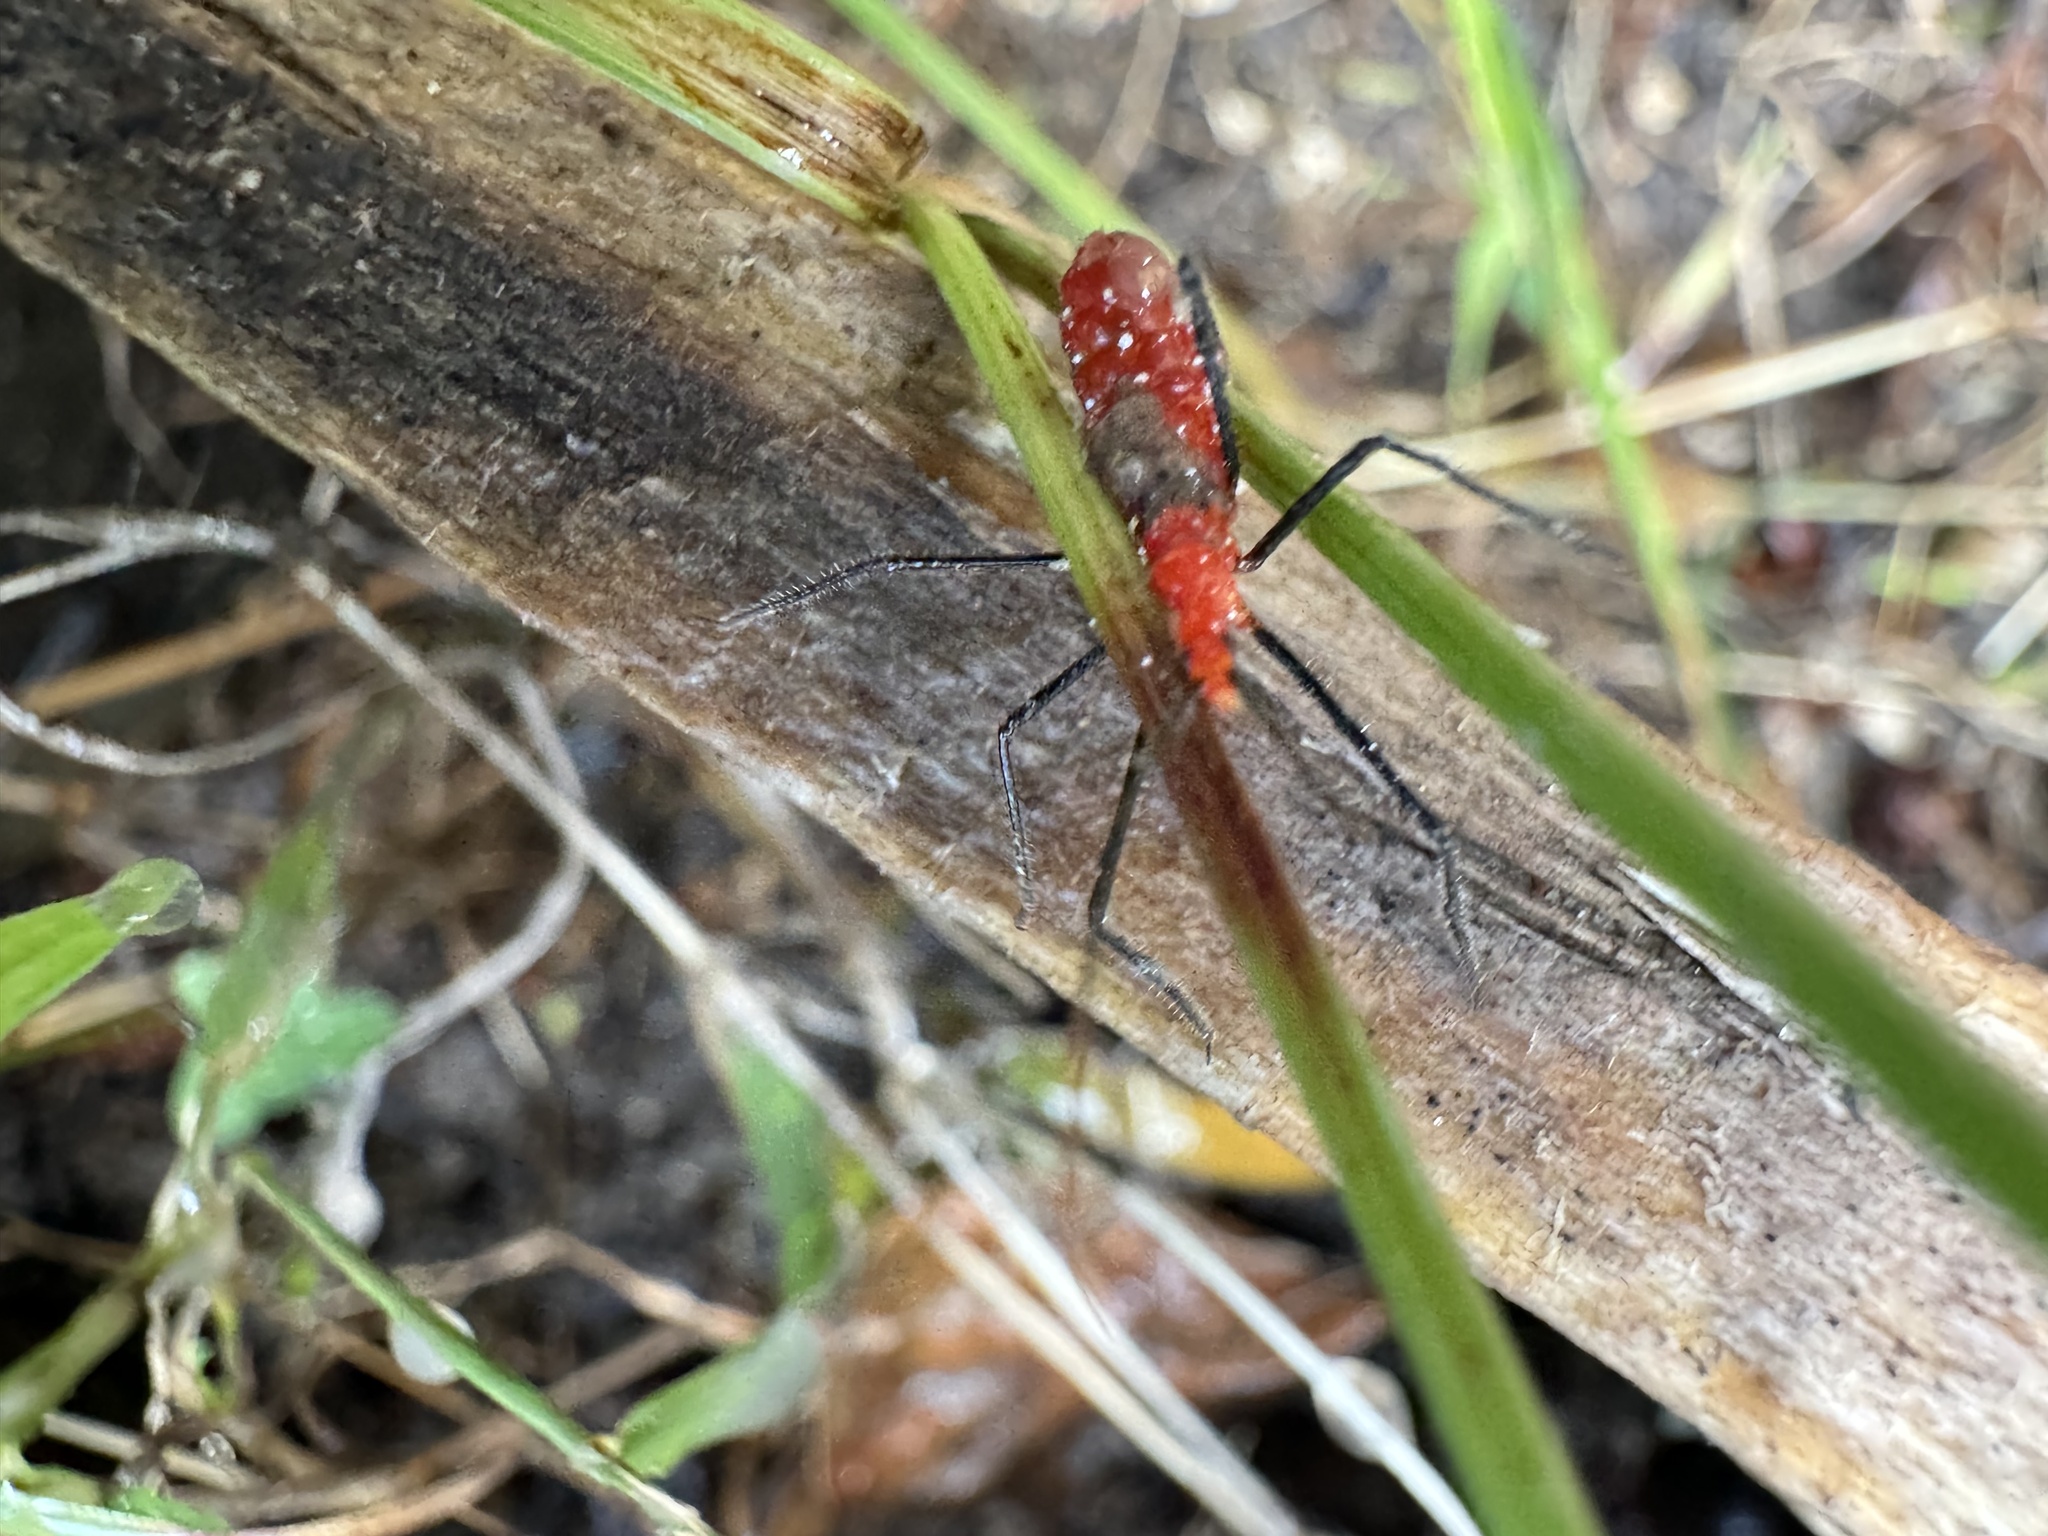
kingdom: Animalia
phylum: Arthropoda
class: Insecta
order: Hemiptera
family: Reduviidae
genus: Zelus
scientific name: Zelus longipes
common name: Milkweed assassin bug
